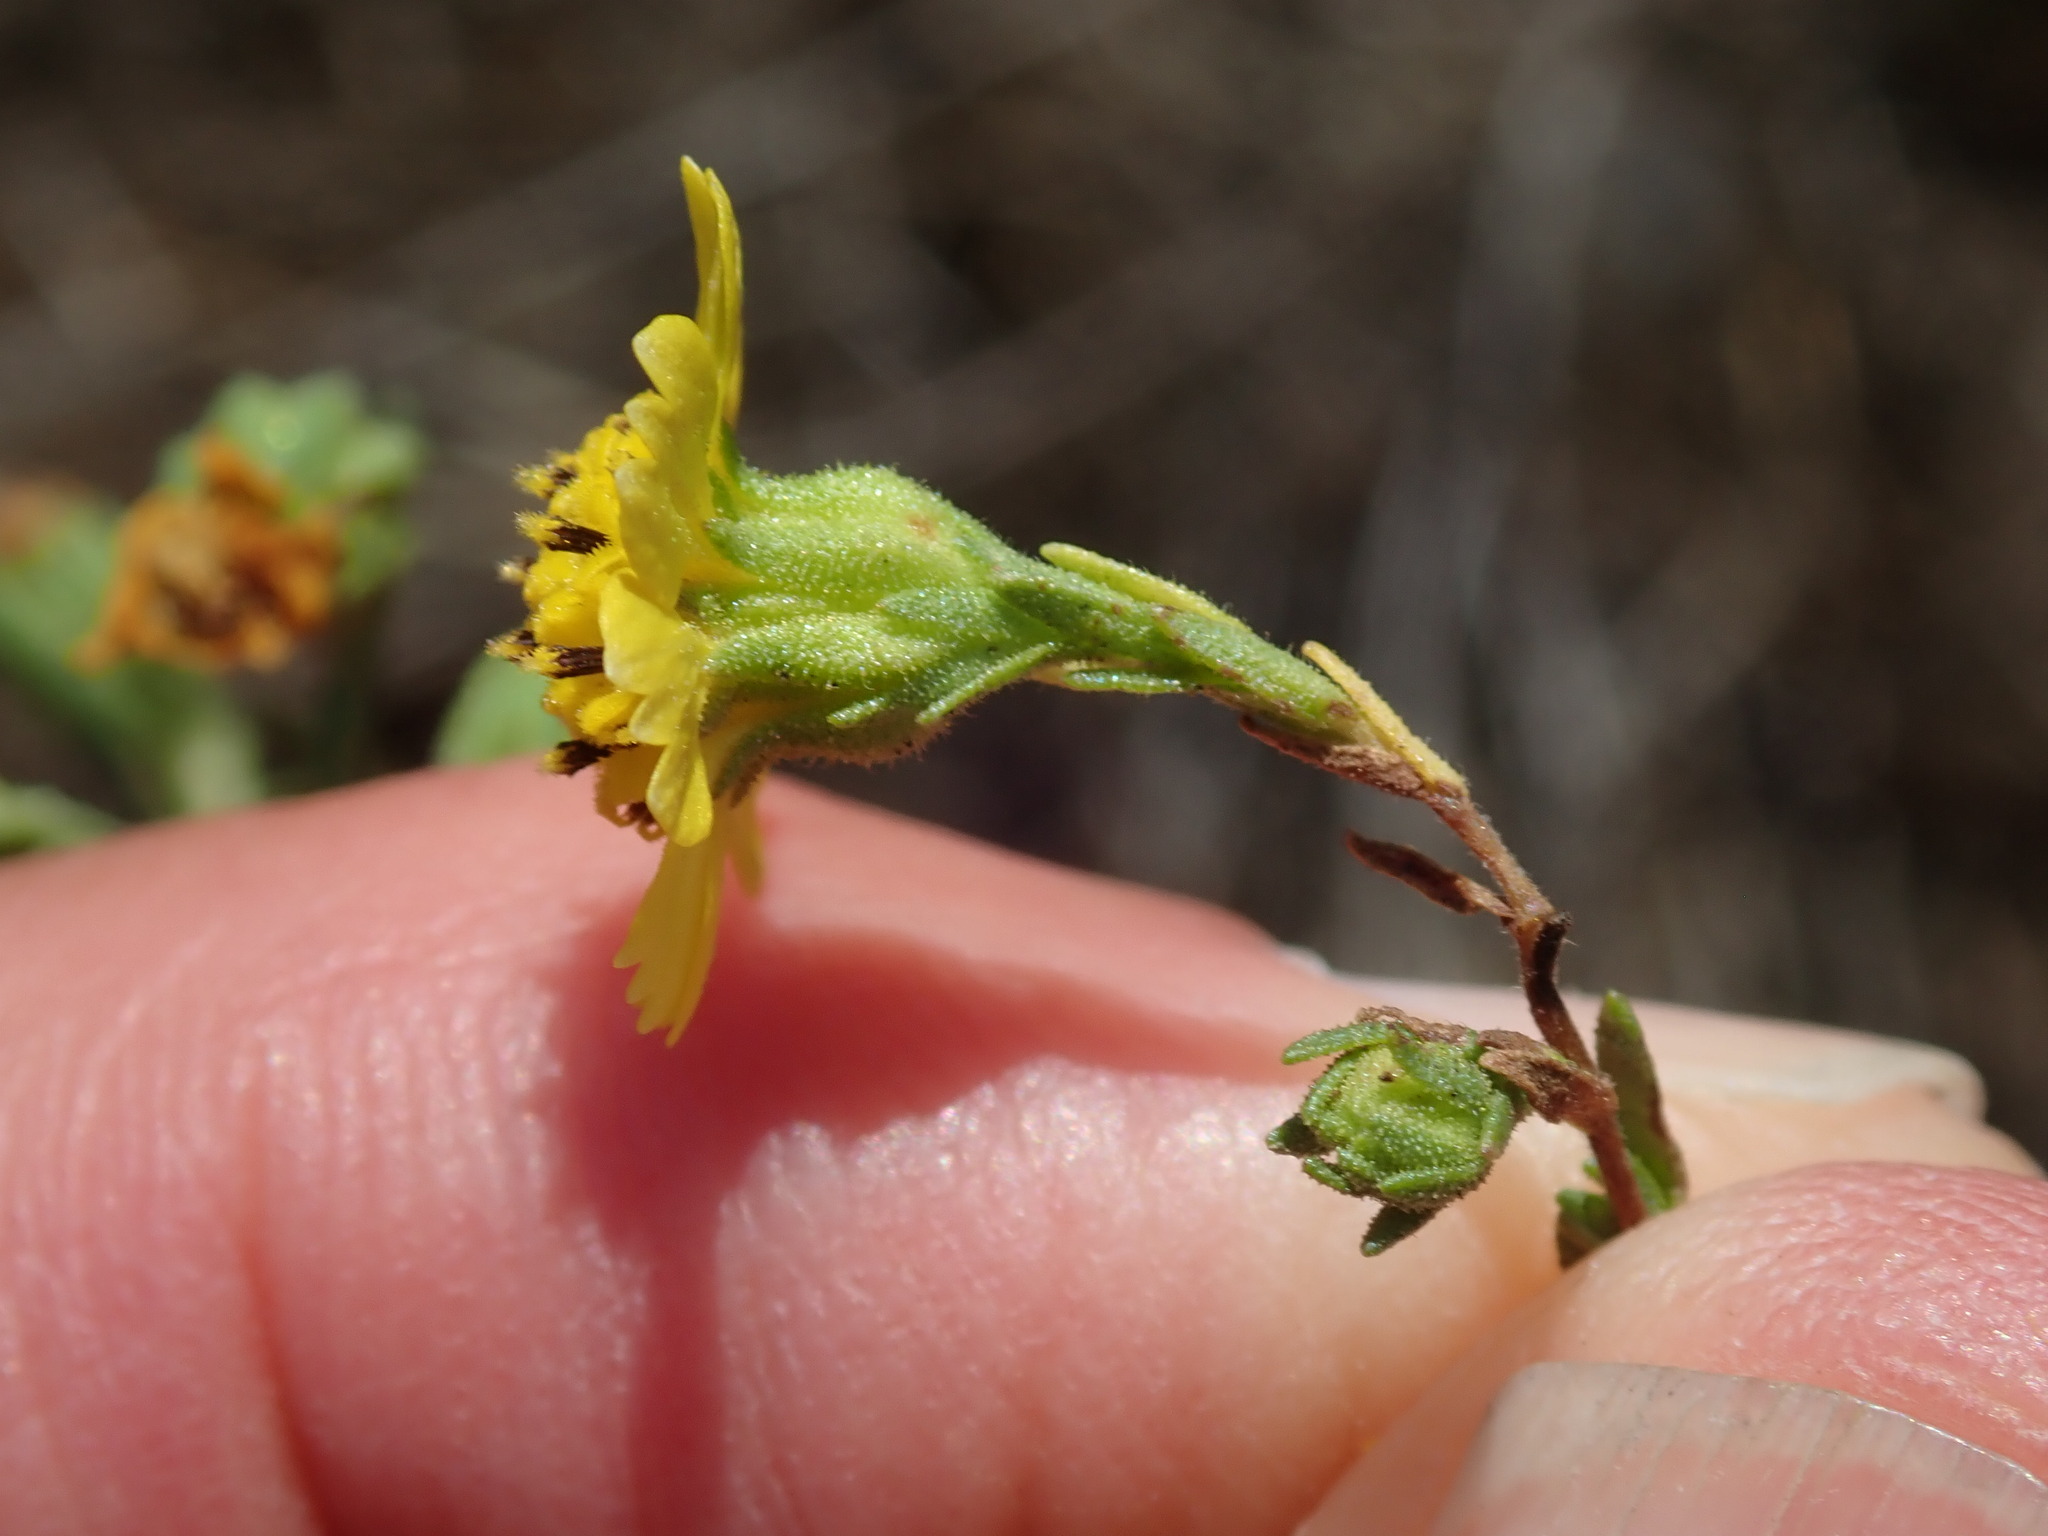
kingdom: Plantae
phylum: Tracheophyta
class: Magnoliopsida
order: Asterales
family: Asteraceae
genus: Deinandra
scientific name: Deinandra paniculata
